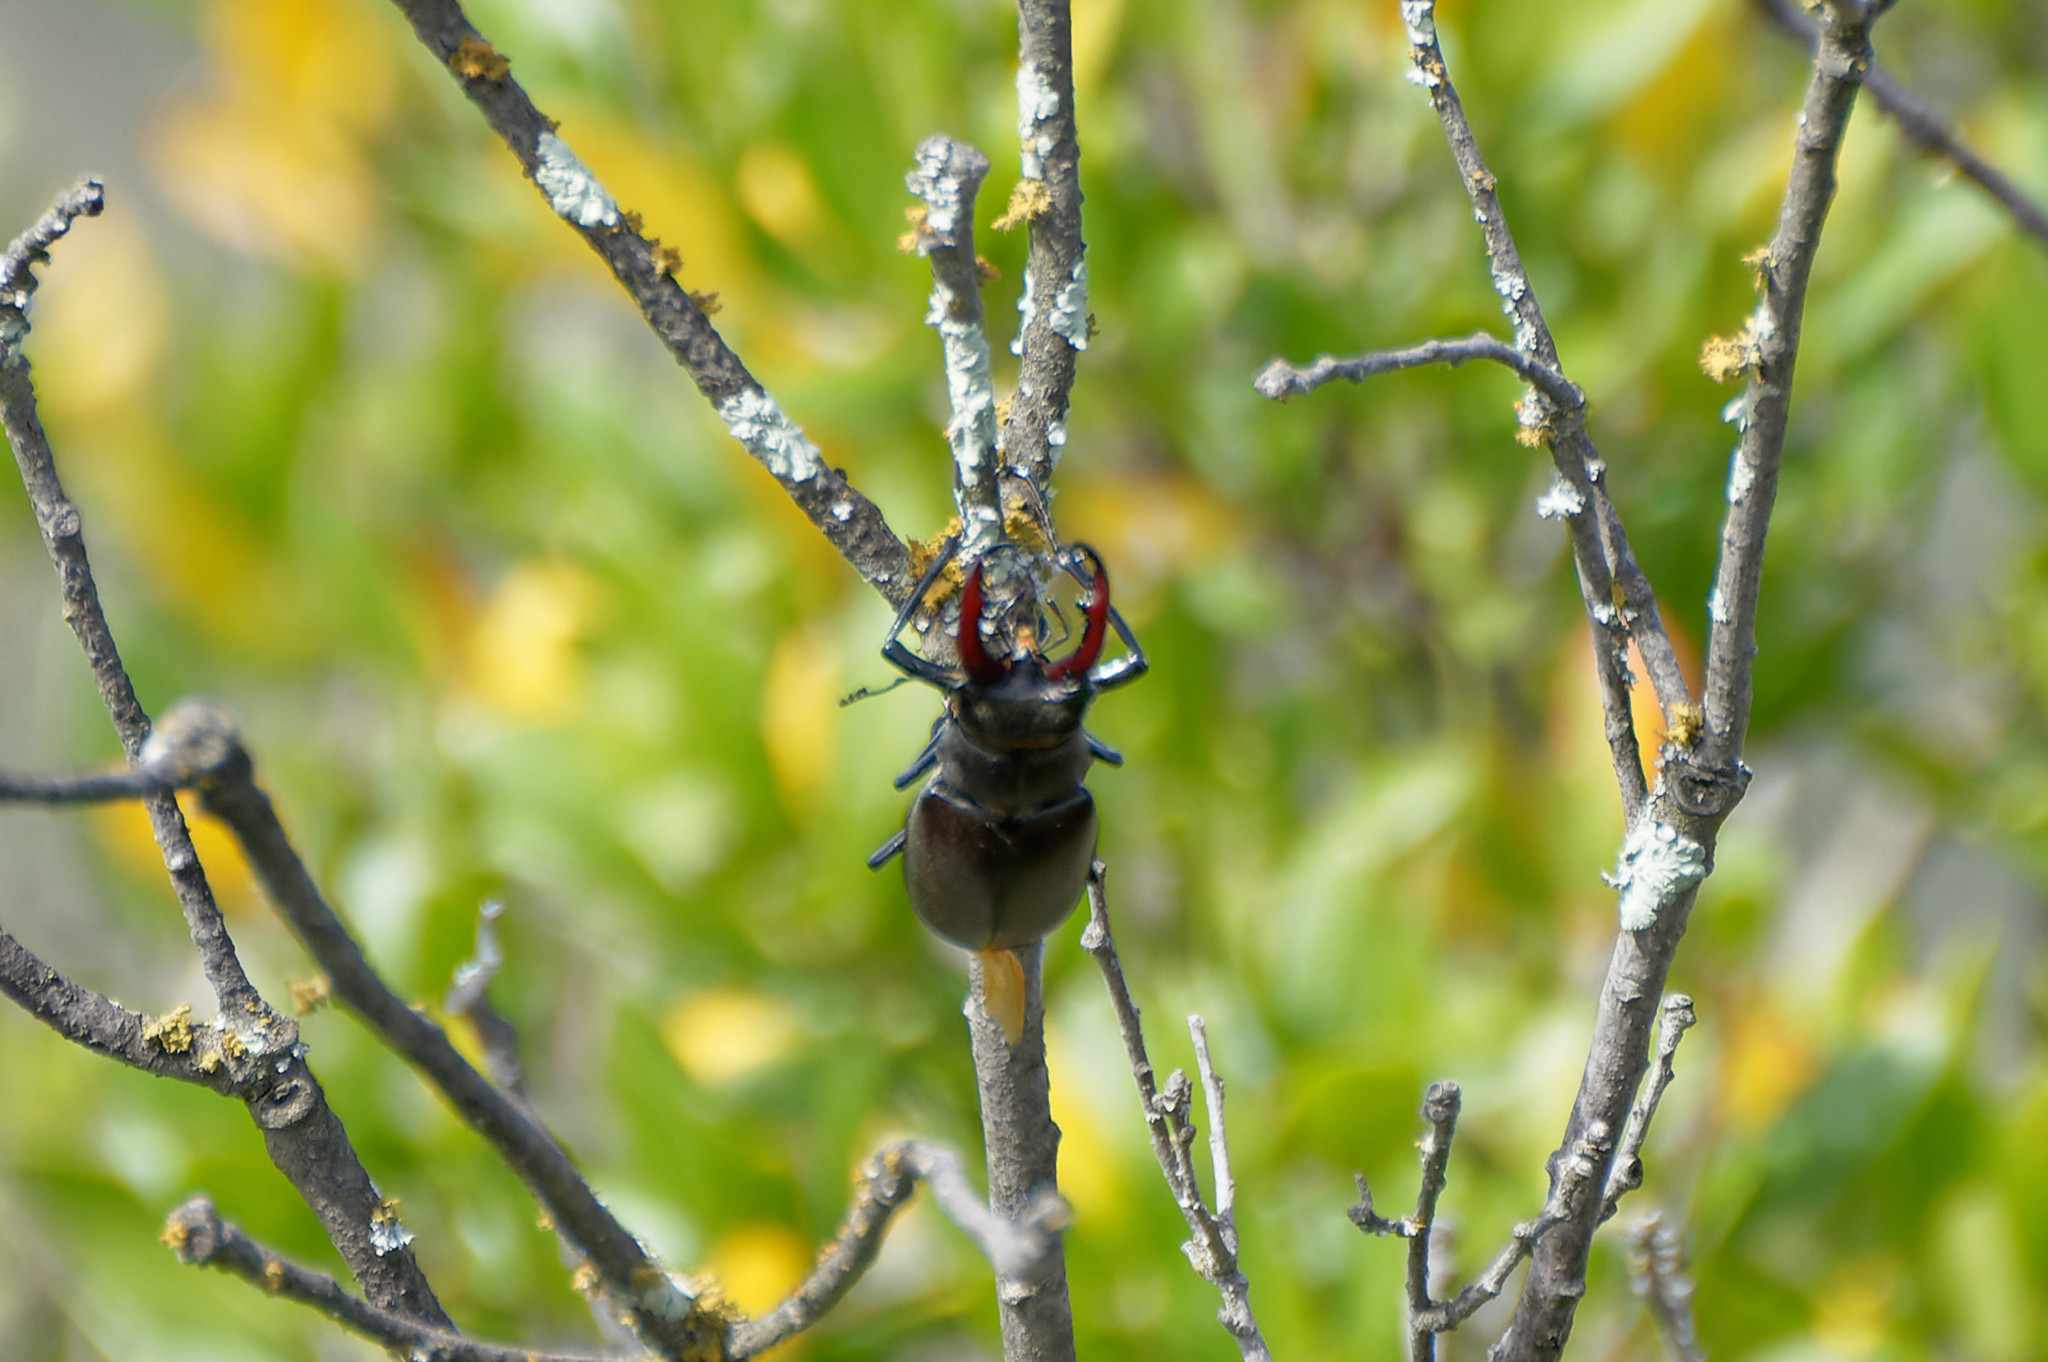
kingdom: Animalia
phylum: Arthropoda
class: Insecta
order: Coleoptera
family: Lucanidae
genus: Lucanus
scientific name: Lucanus cervus
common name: Stag beetle
